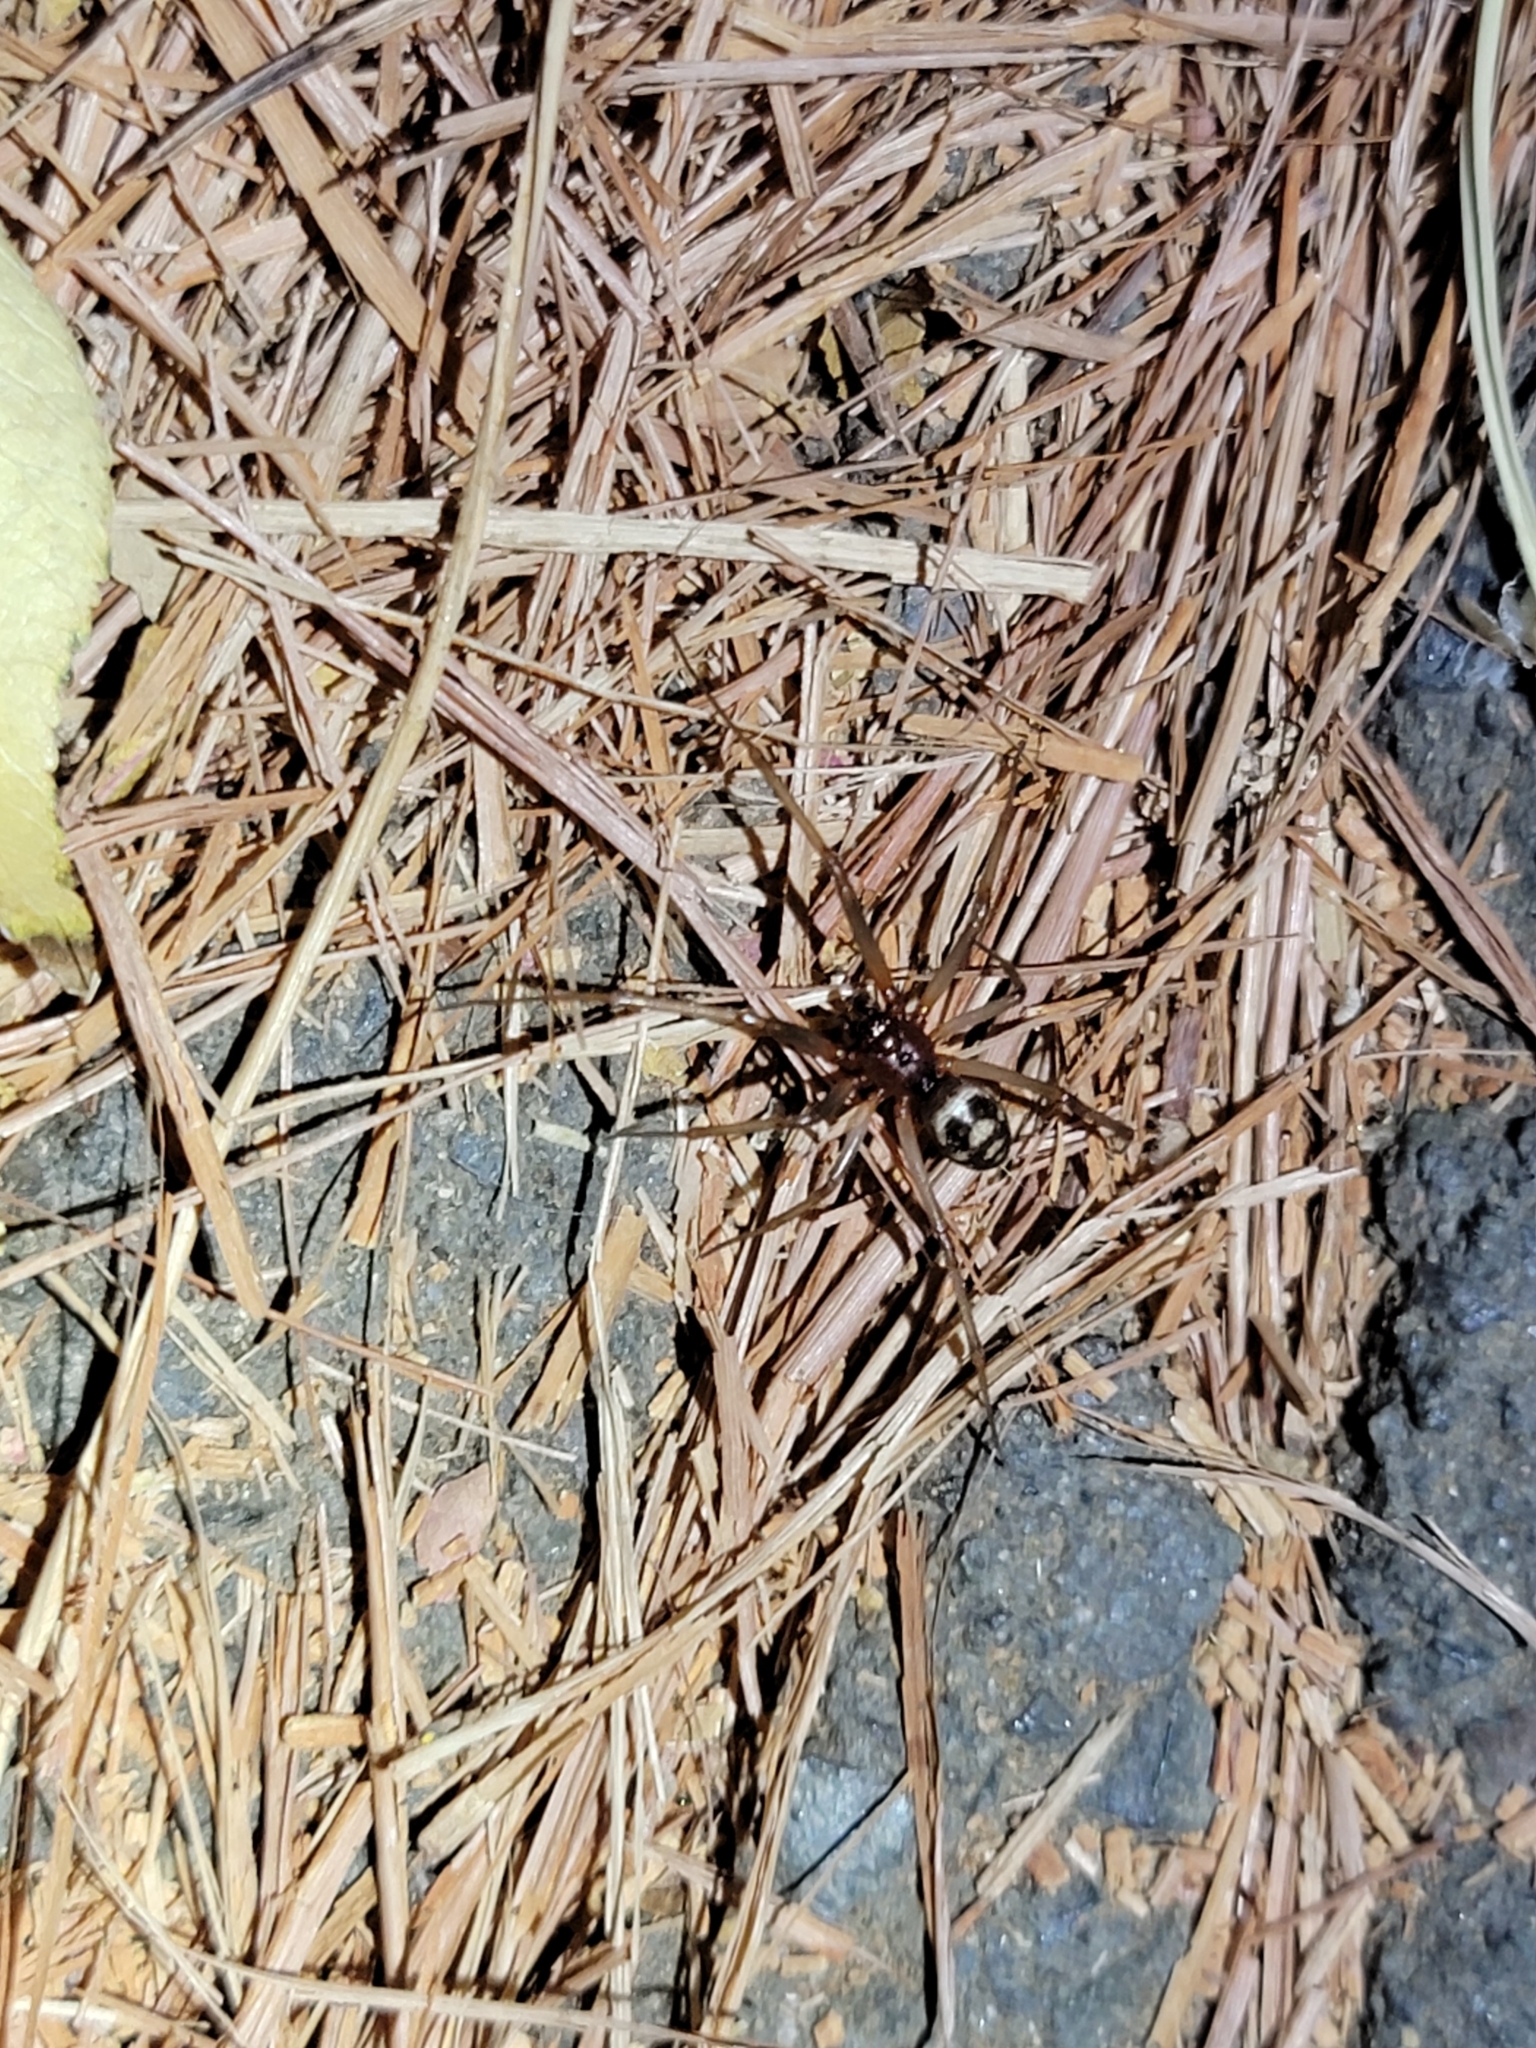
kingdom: Animalia
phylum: Arthropoda
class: Arachnida
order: Araneae
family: Theridiidae
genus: Steatoda
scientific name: Steatoda grossa
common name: False black widow
